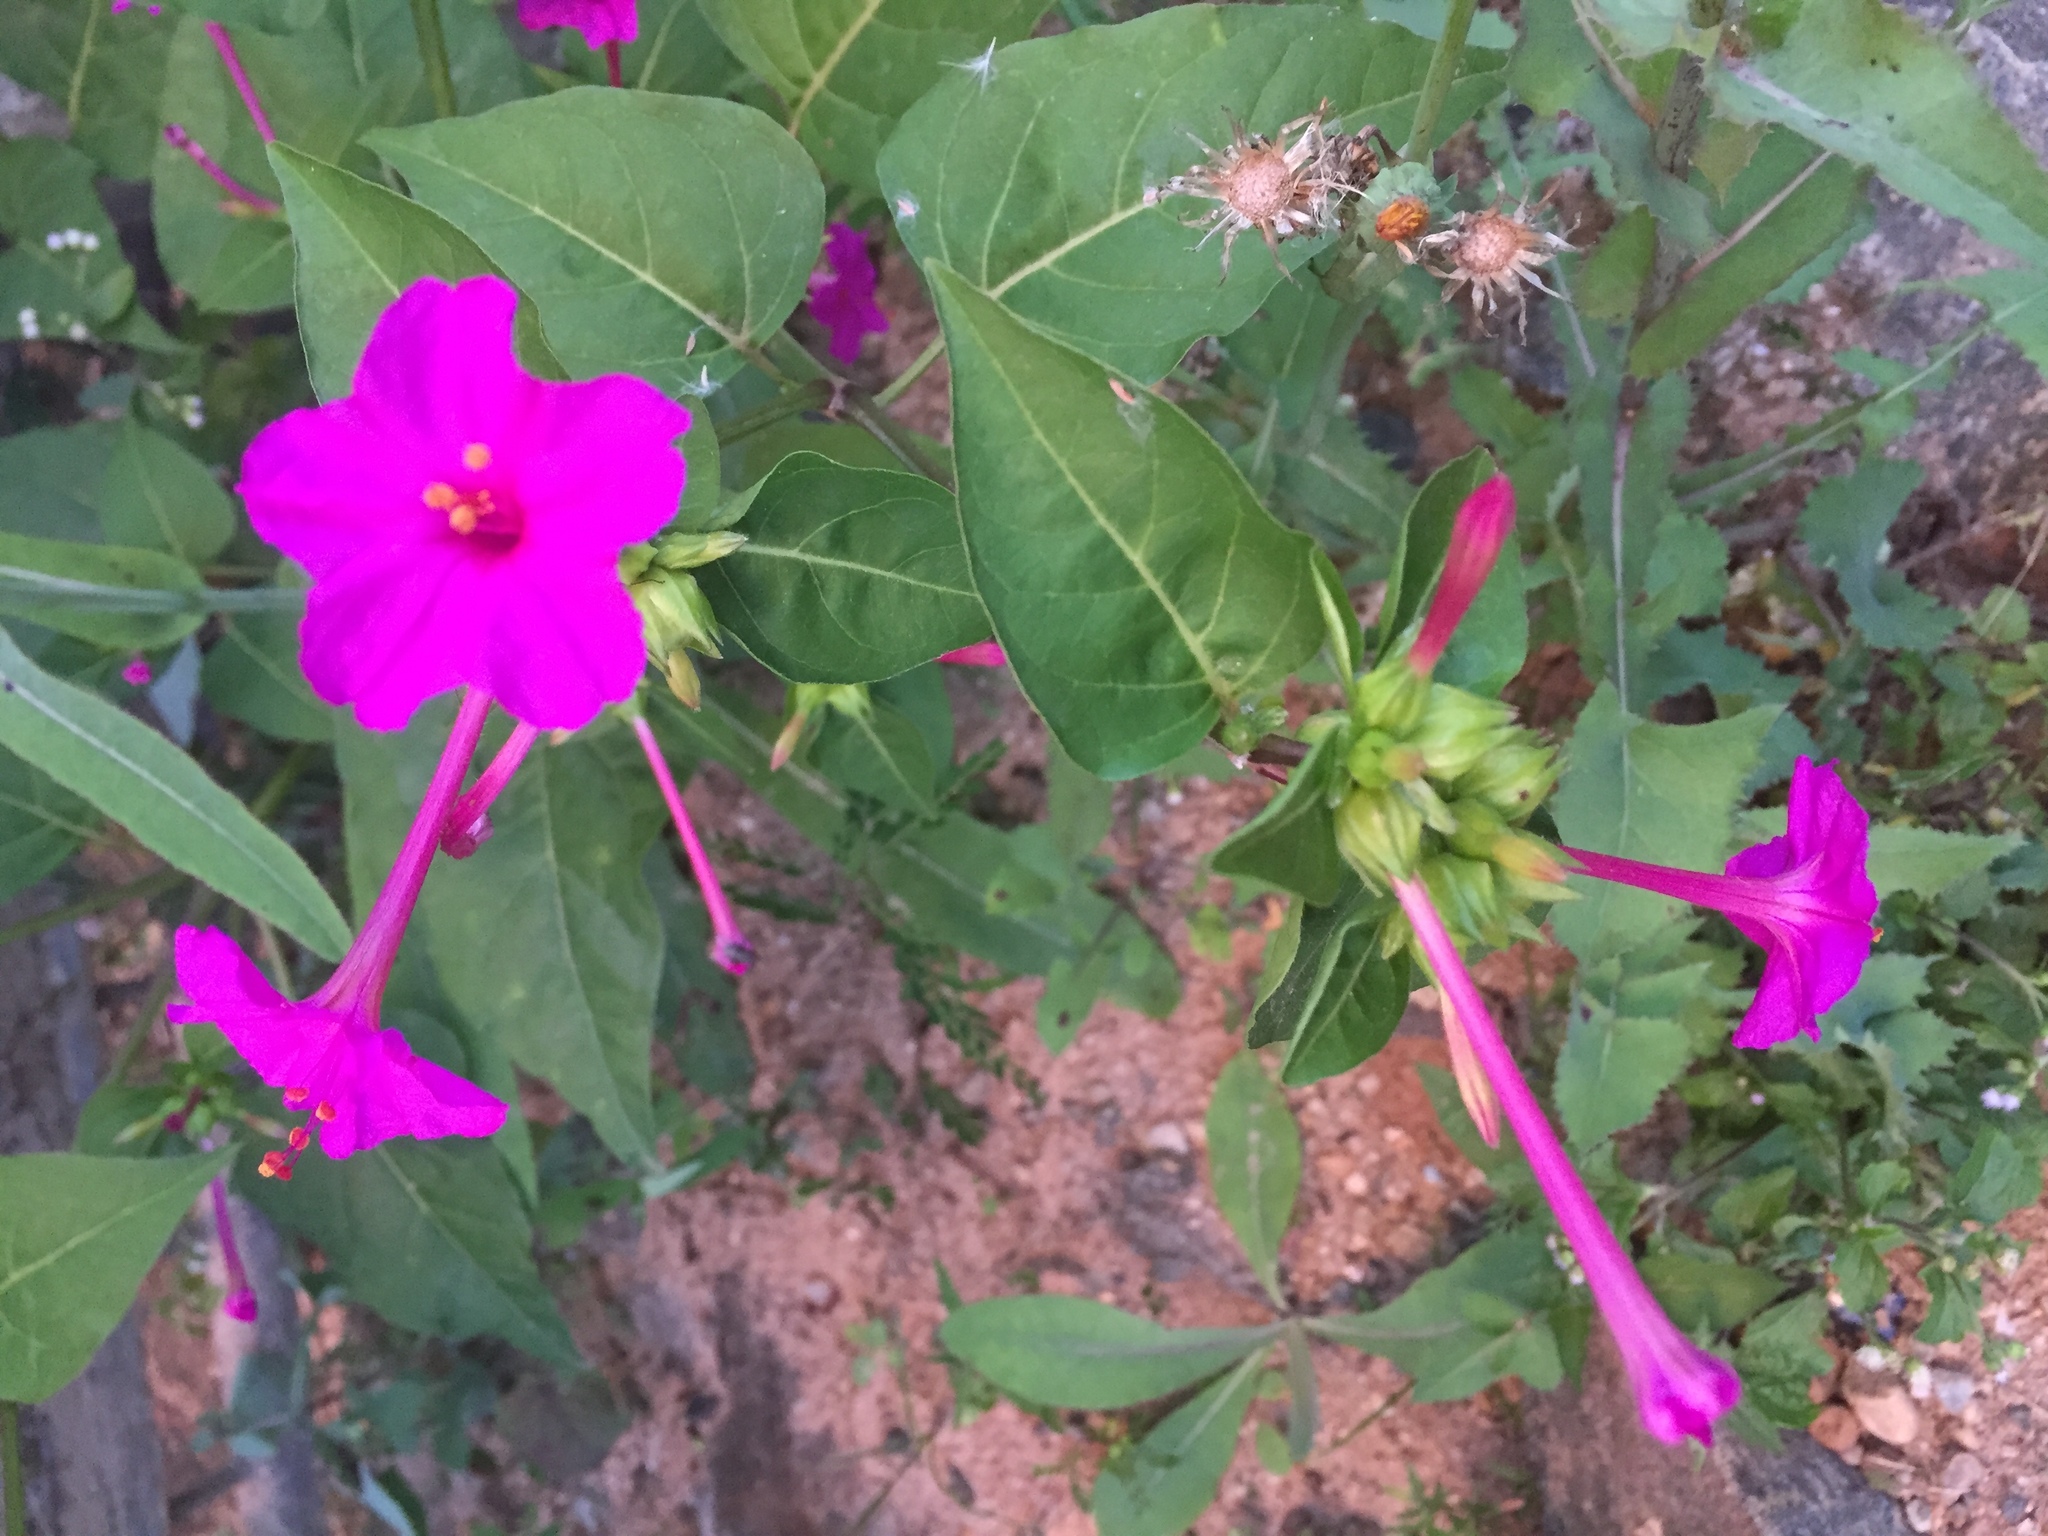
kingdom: Plantae
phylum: Tracheophyta
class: Magnoliopsida
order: Caryophyllales
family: Nyctaginaceae
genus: Mirabilis
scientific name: Mirabilis jalapa
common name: Marvel-of-peru
